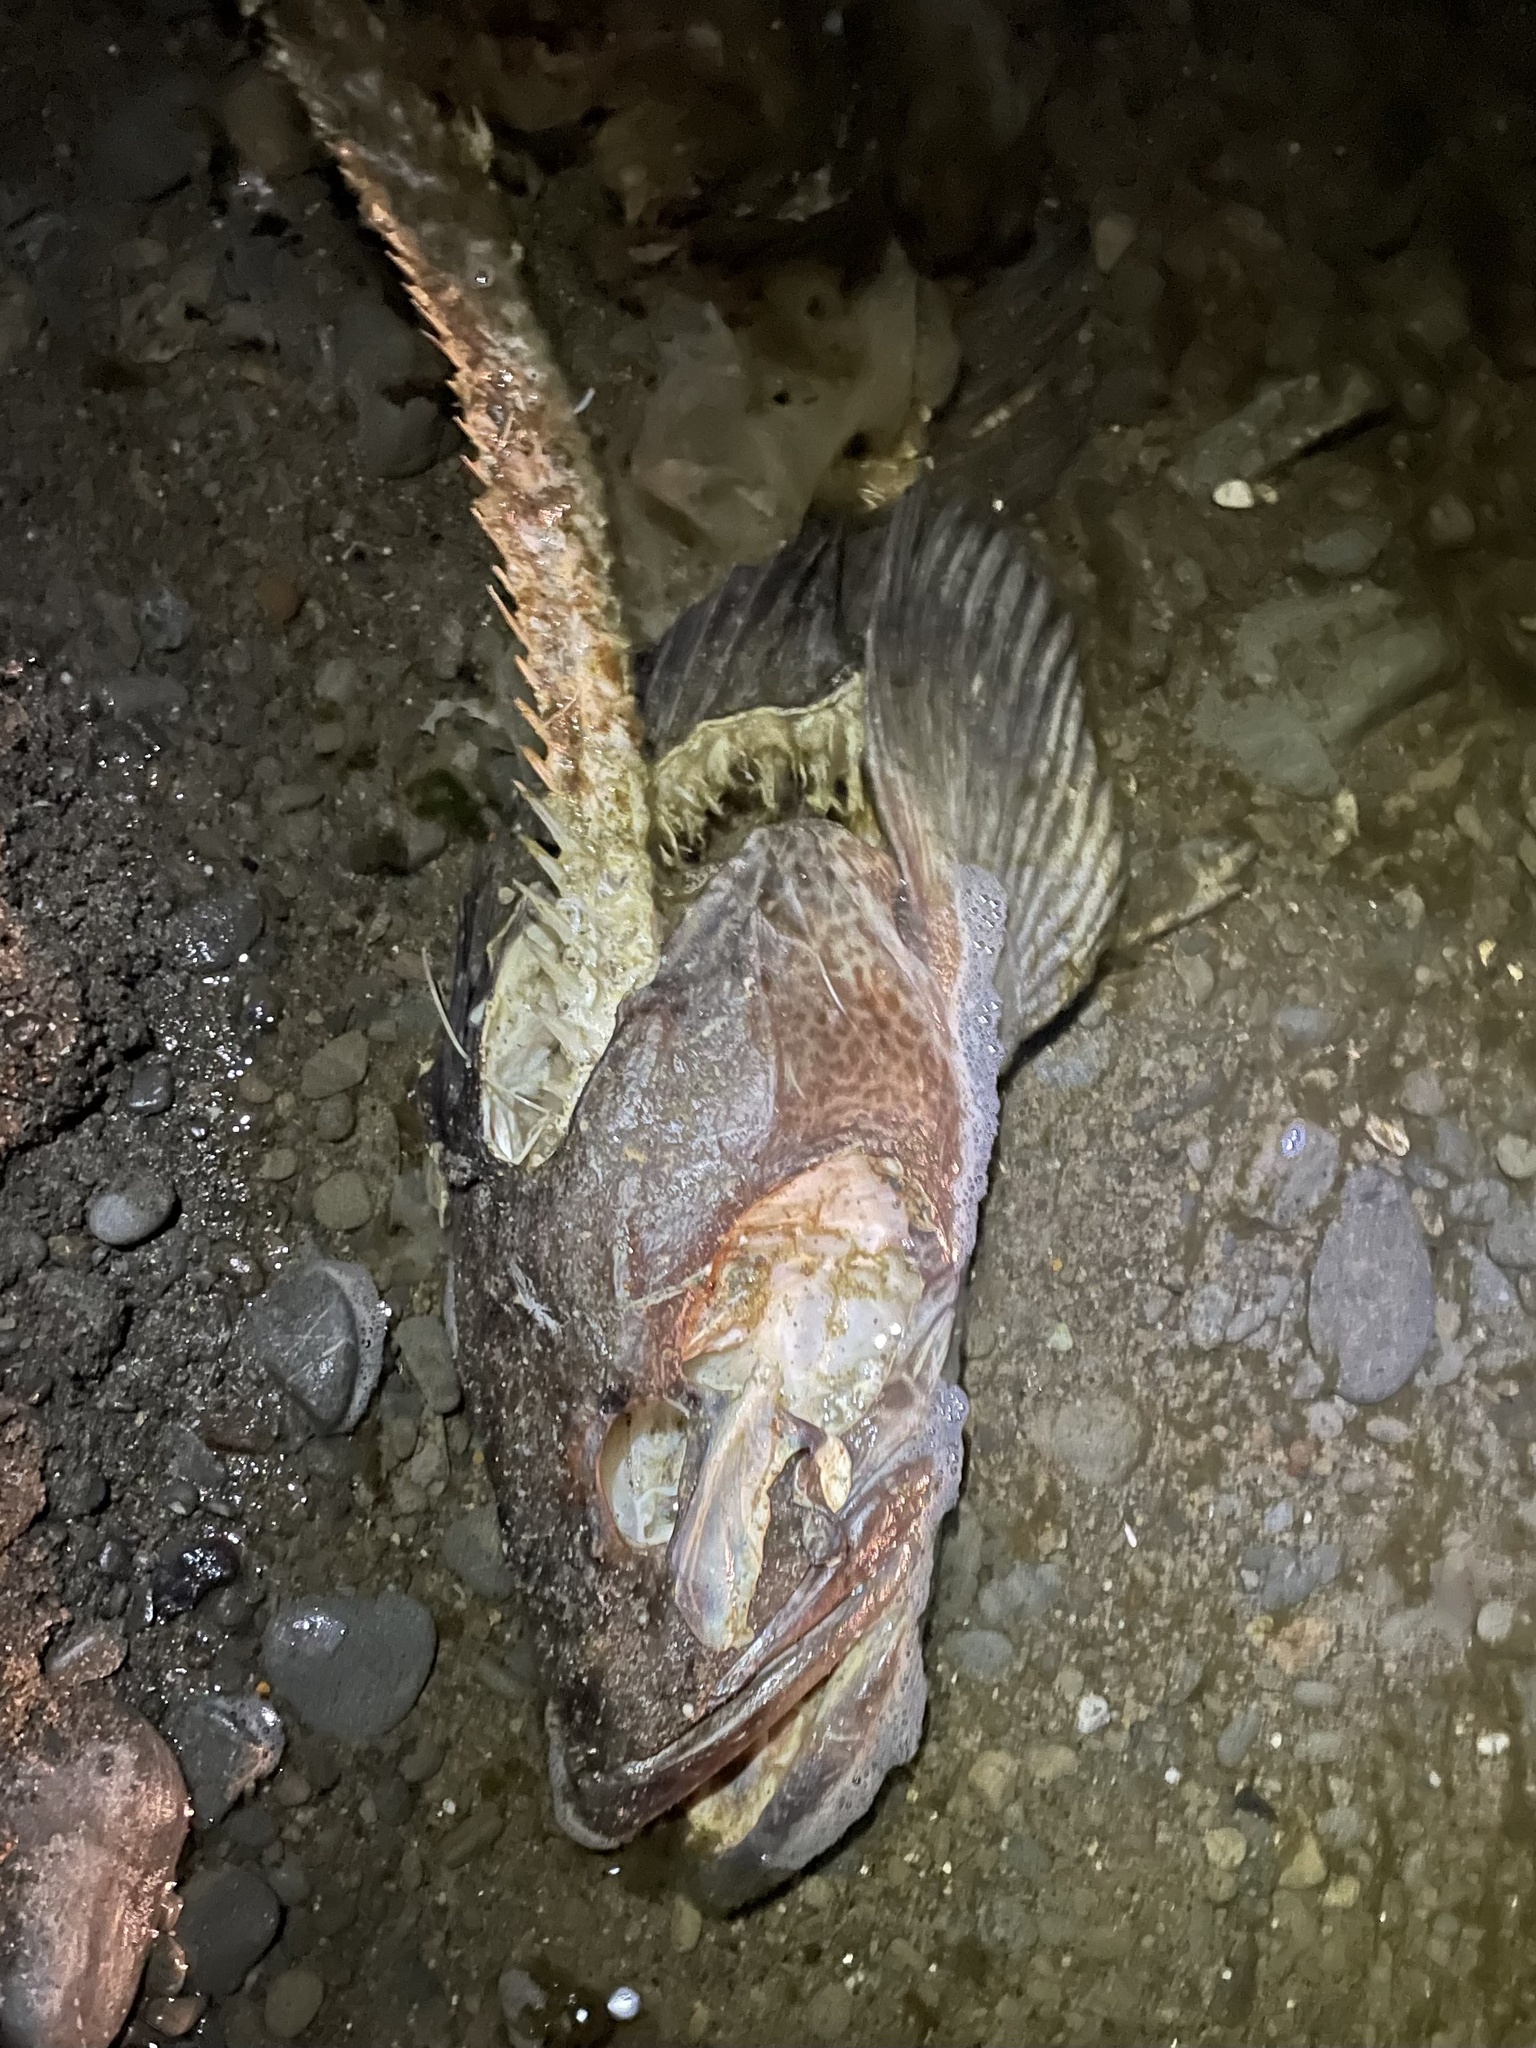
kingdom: Animalia
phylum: Chordata
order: Scorpaeniformes
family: Hexagrammidae
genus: Ophiodon
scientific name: Ophiodon elongatus
